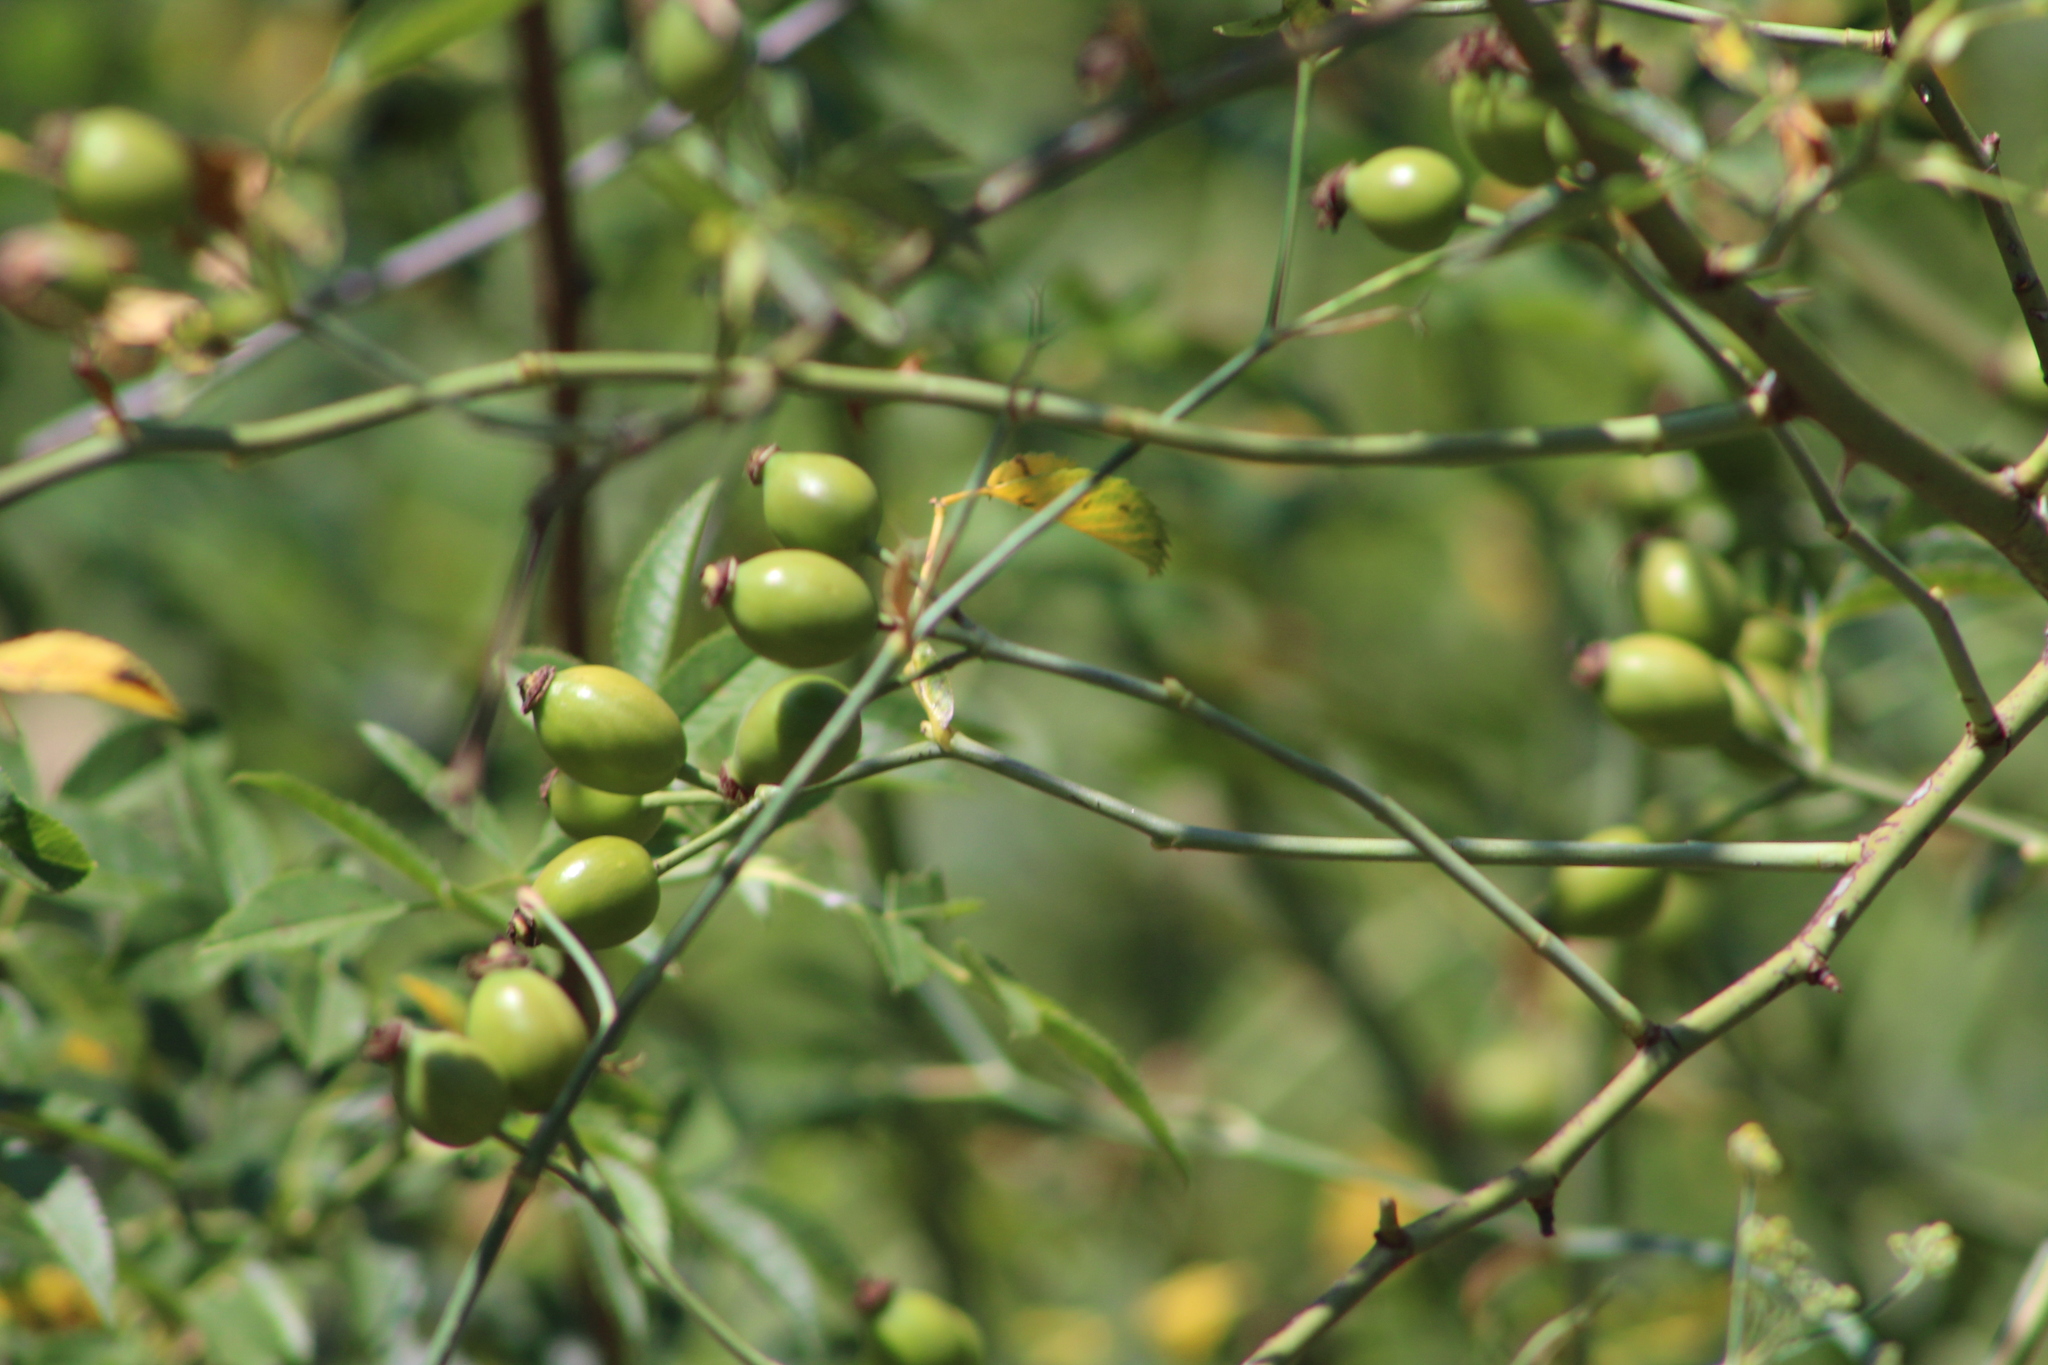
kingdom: Plantae
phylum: Tracheophyta
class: Magnoliopsida
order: Rosales
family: Rosaceae
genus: Rosa
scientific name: Rosa canina
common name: Dog rose
